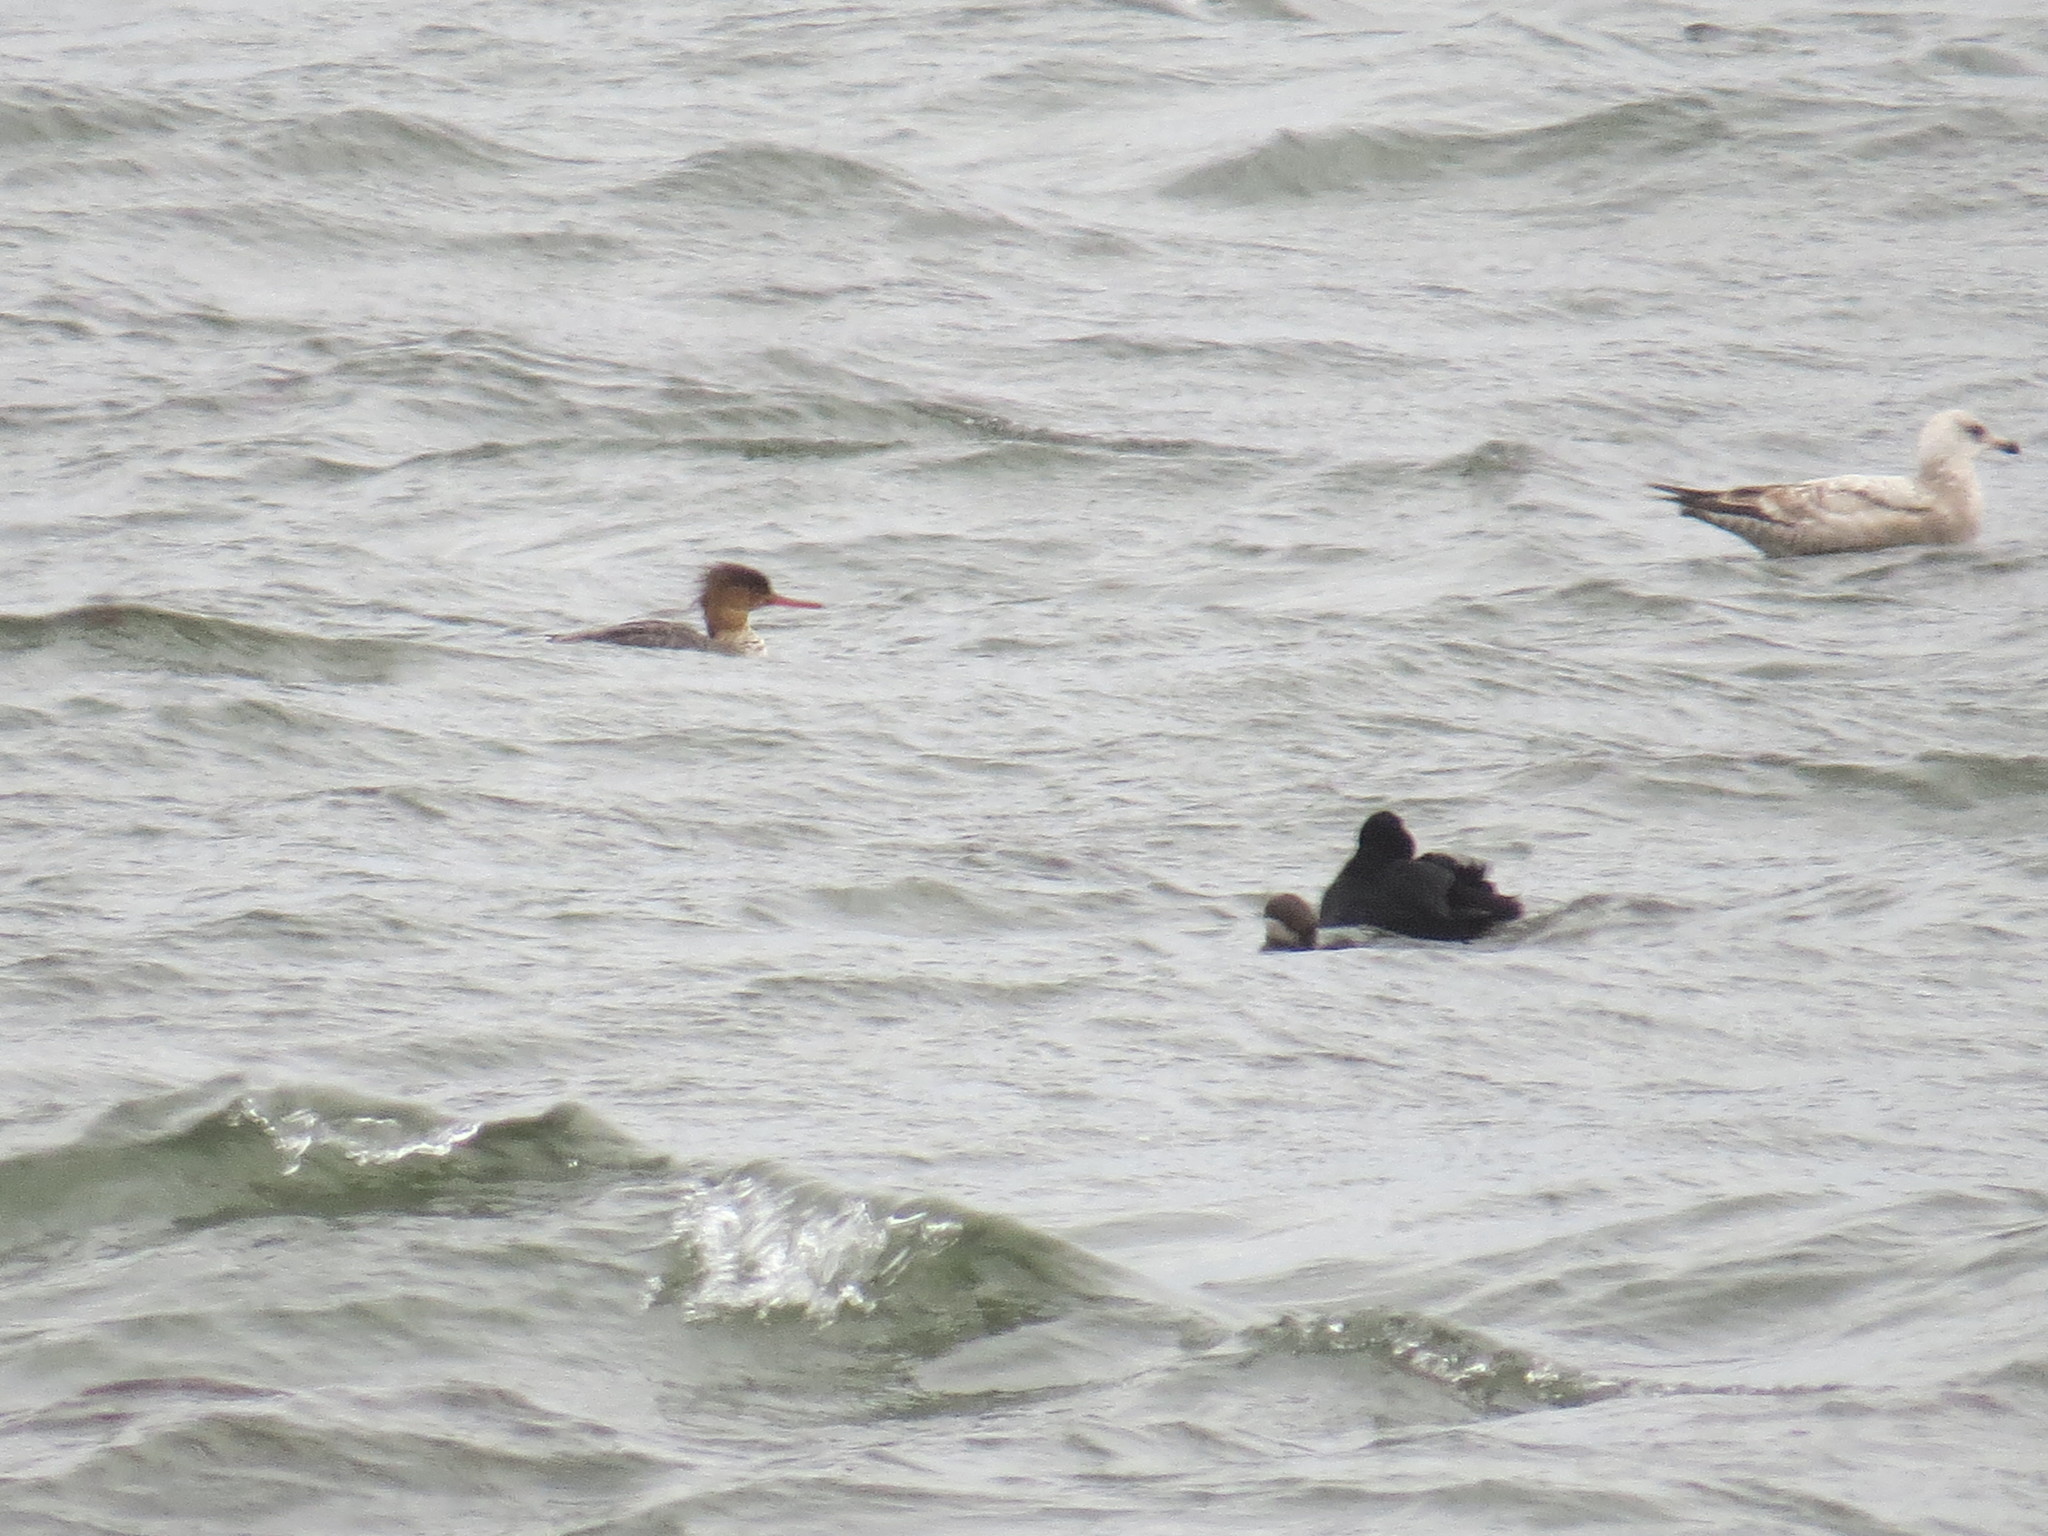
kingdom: Animalia
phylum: Chordata
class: Aves
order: Anseriformes
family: Anatidae
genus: Mergus
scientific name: Mergus serrator
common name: Red-breasted merganser
